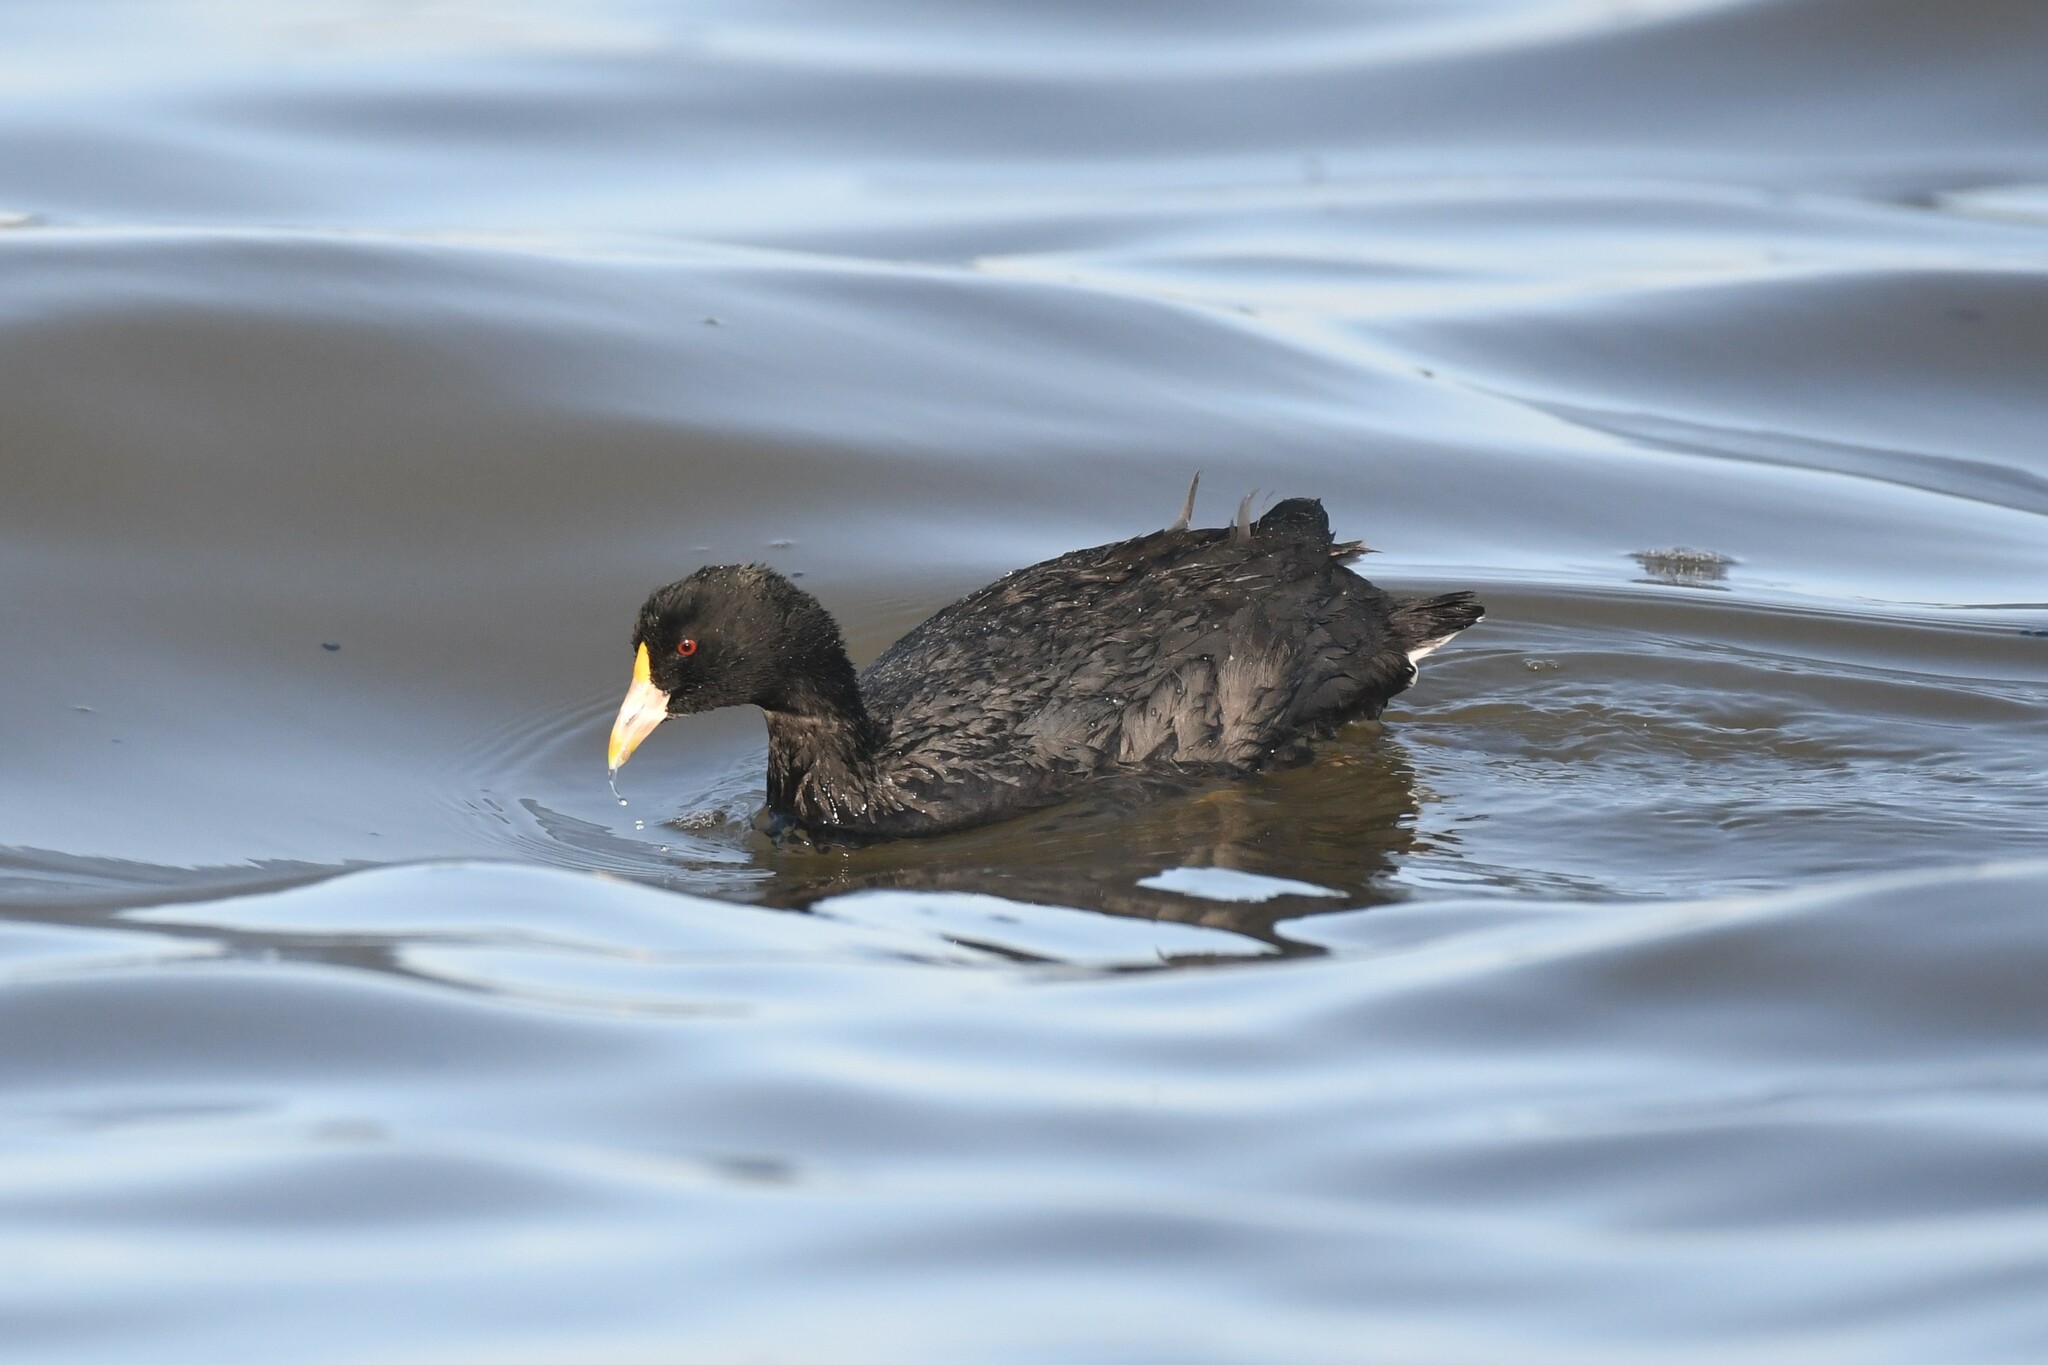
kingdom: Animalia
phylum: Chordata
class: Aves
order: Gruiformes
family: Rallidae
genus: Fulica
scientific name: Fulica leucoptera
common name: White-winged coot
